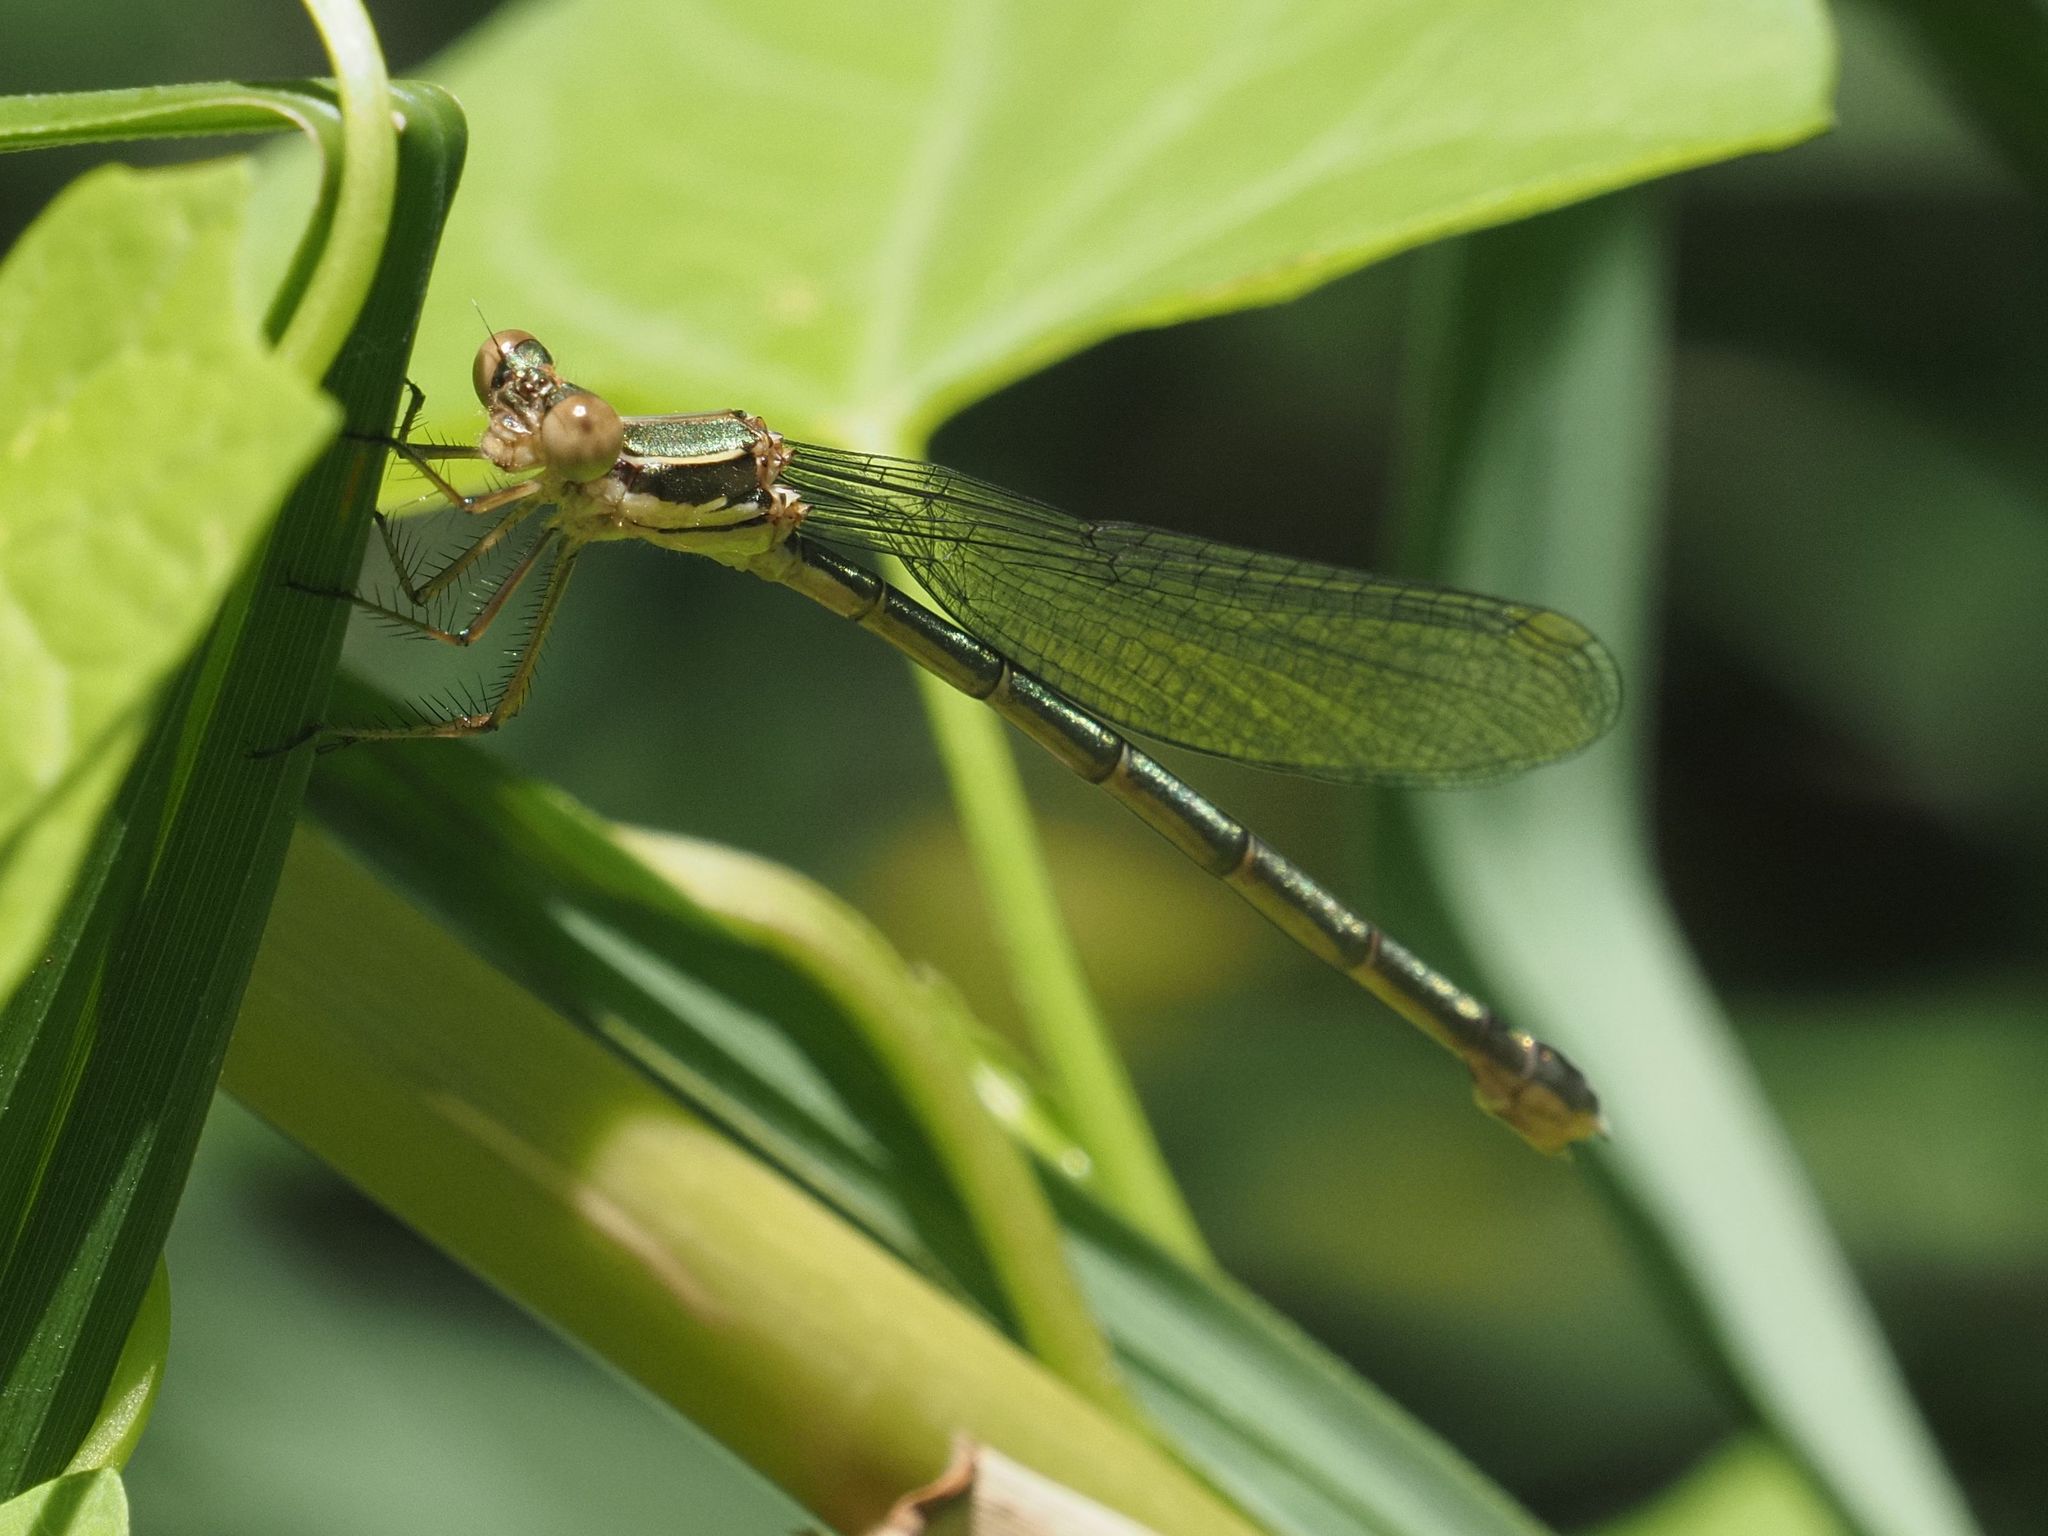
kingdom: Animalia
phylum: Arthropoda
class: Insecta
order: Odonata
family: Lestidae
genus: Chalcolestes
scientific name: Chalcolestes viridis
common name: Green emerald damselfly
